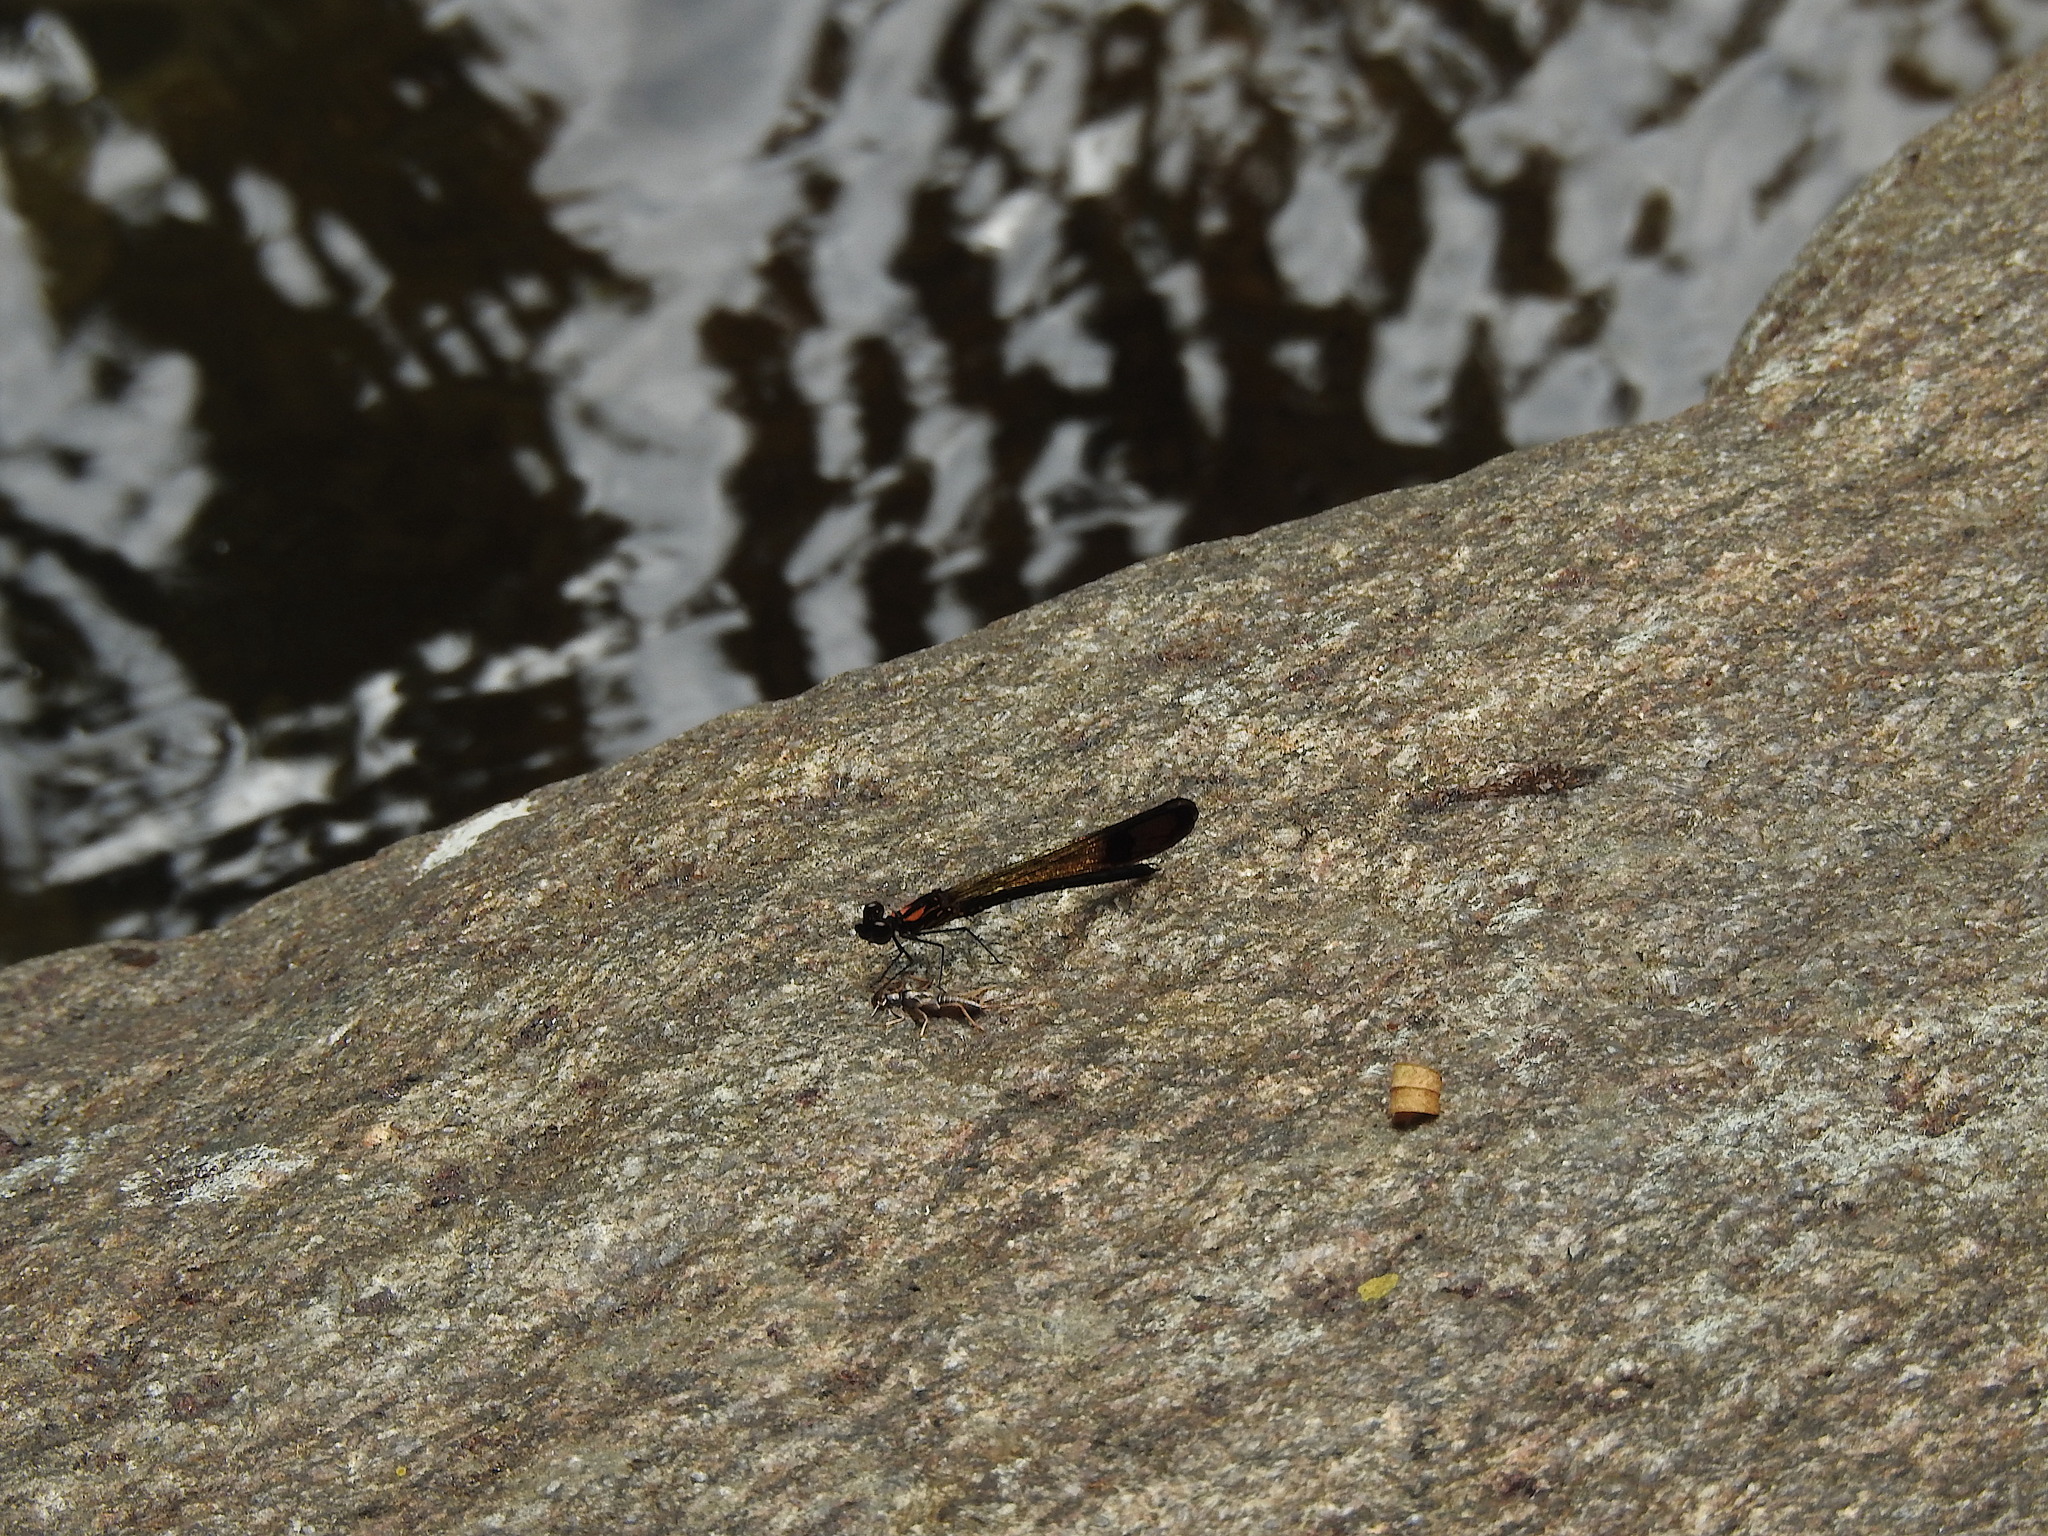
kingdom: Animalia
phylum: Arthropoda
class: Insecta
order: Odonata
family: Chlorocyphidae
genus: Heliocypha
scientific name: Heliocypha bisignata
